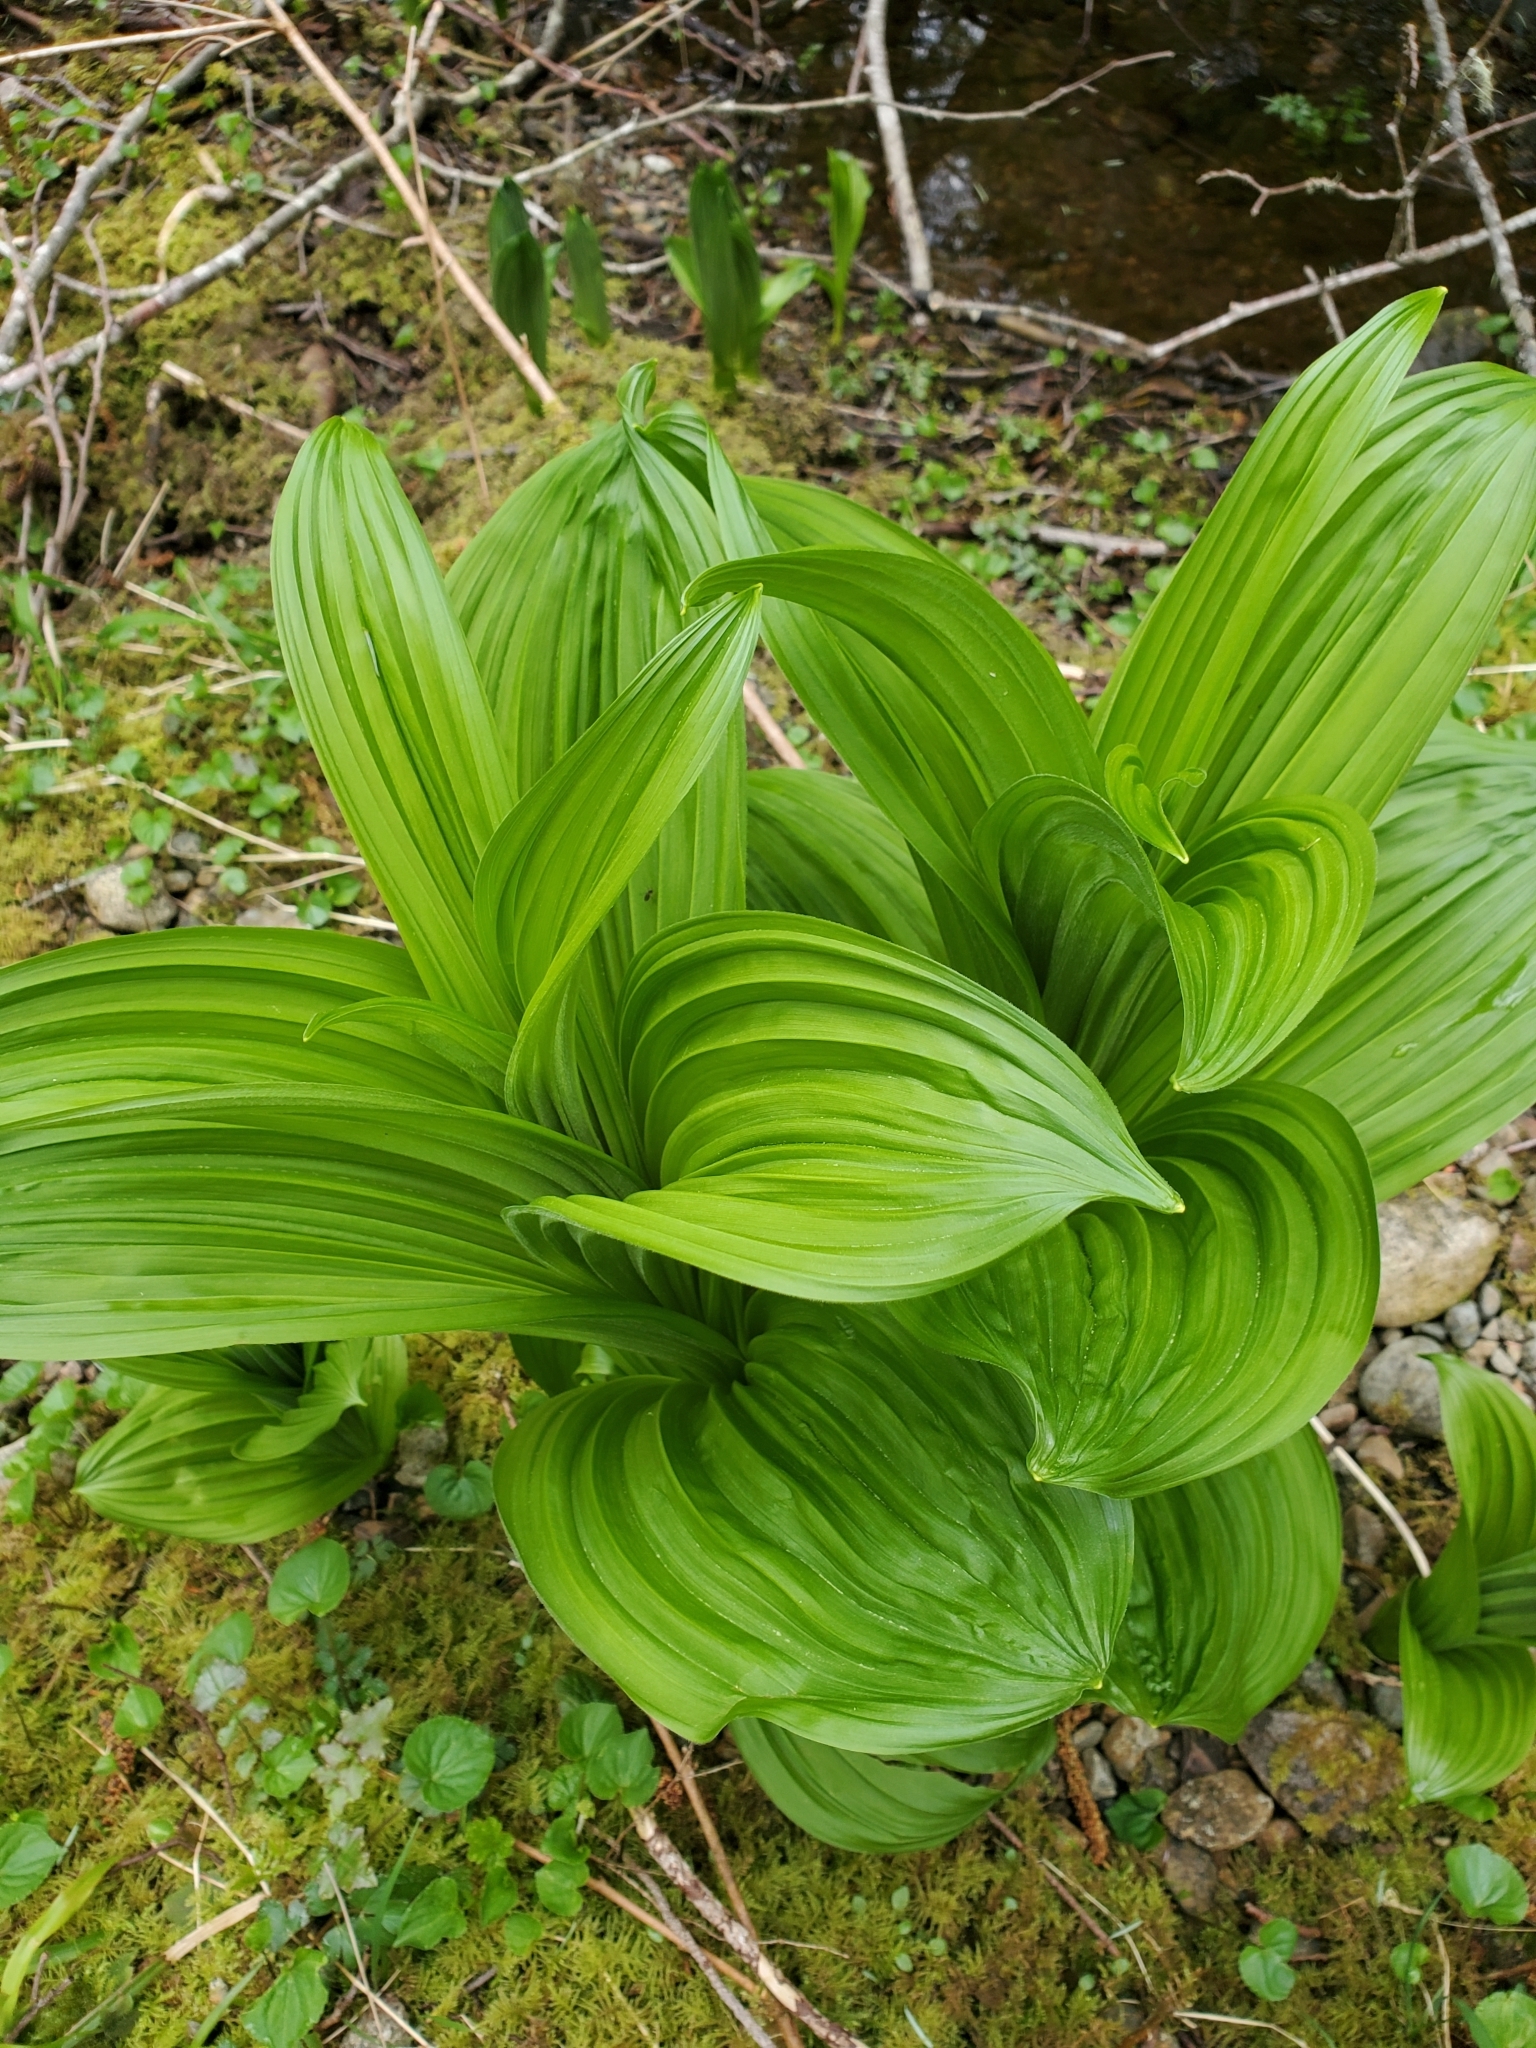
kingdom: Plantae
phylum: Tracheophyta
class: Liliopsida
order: Liliales
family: Melanthiaceae
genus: Veratrum
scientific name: Veratrum viride
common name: American false hellebore
